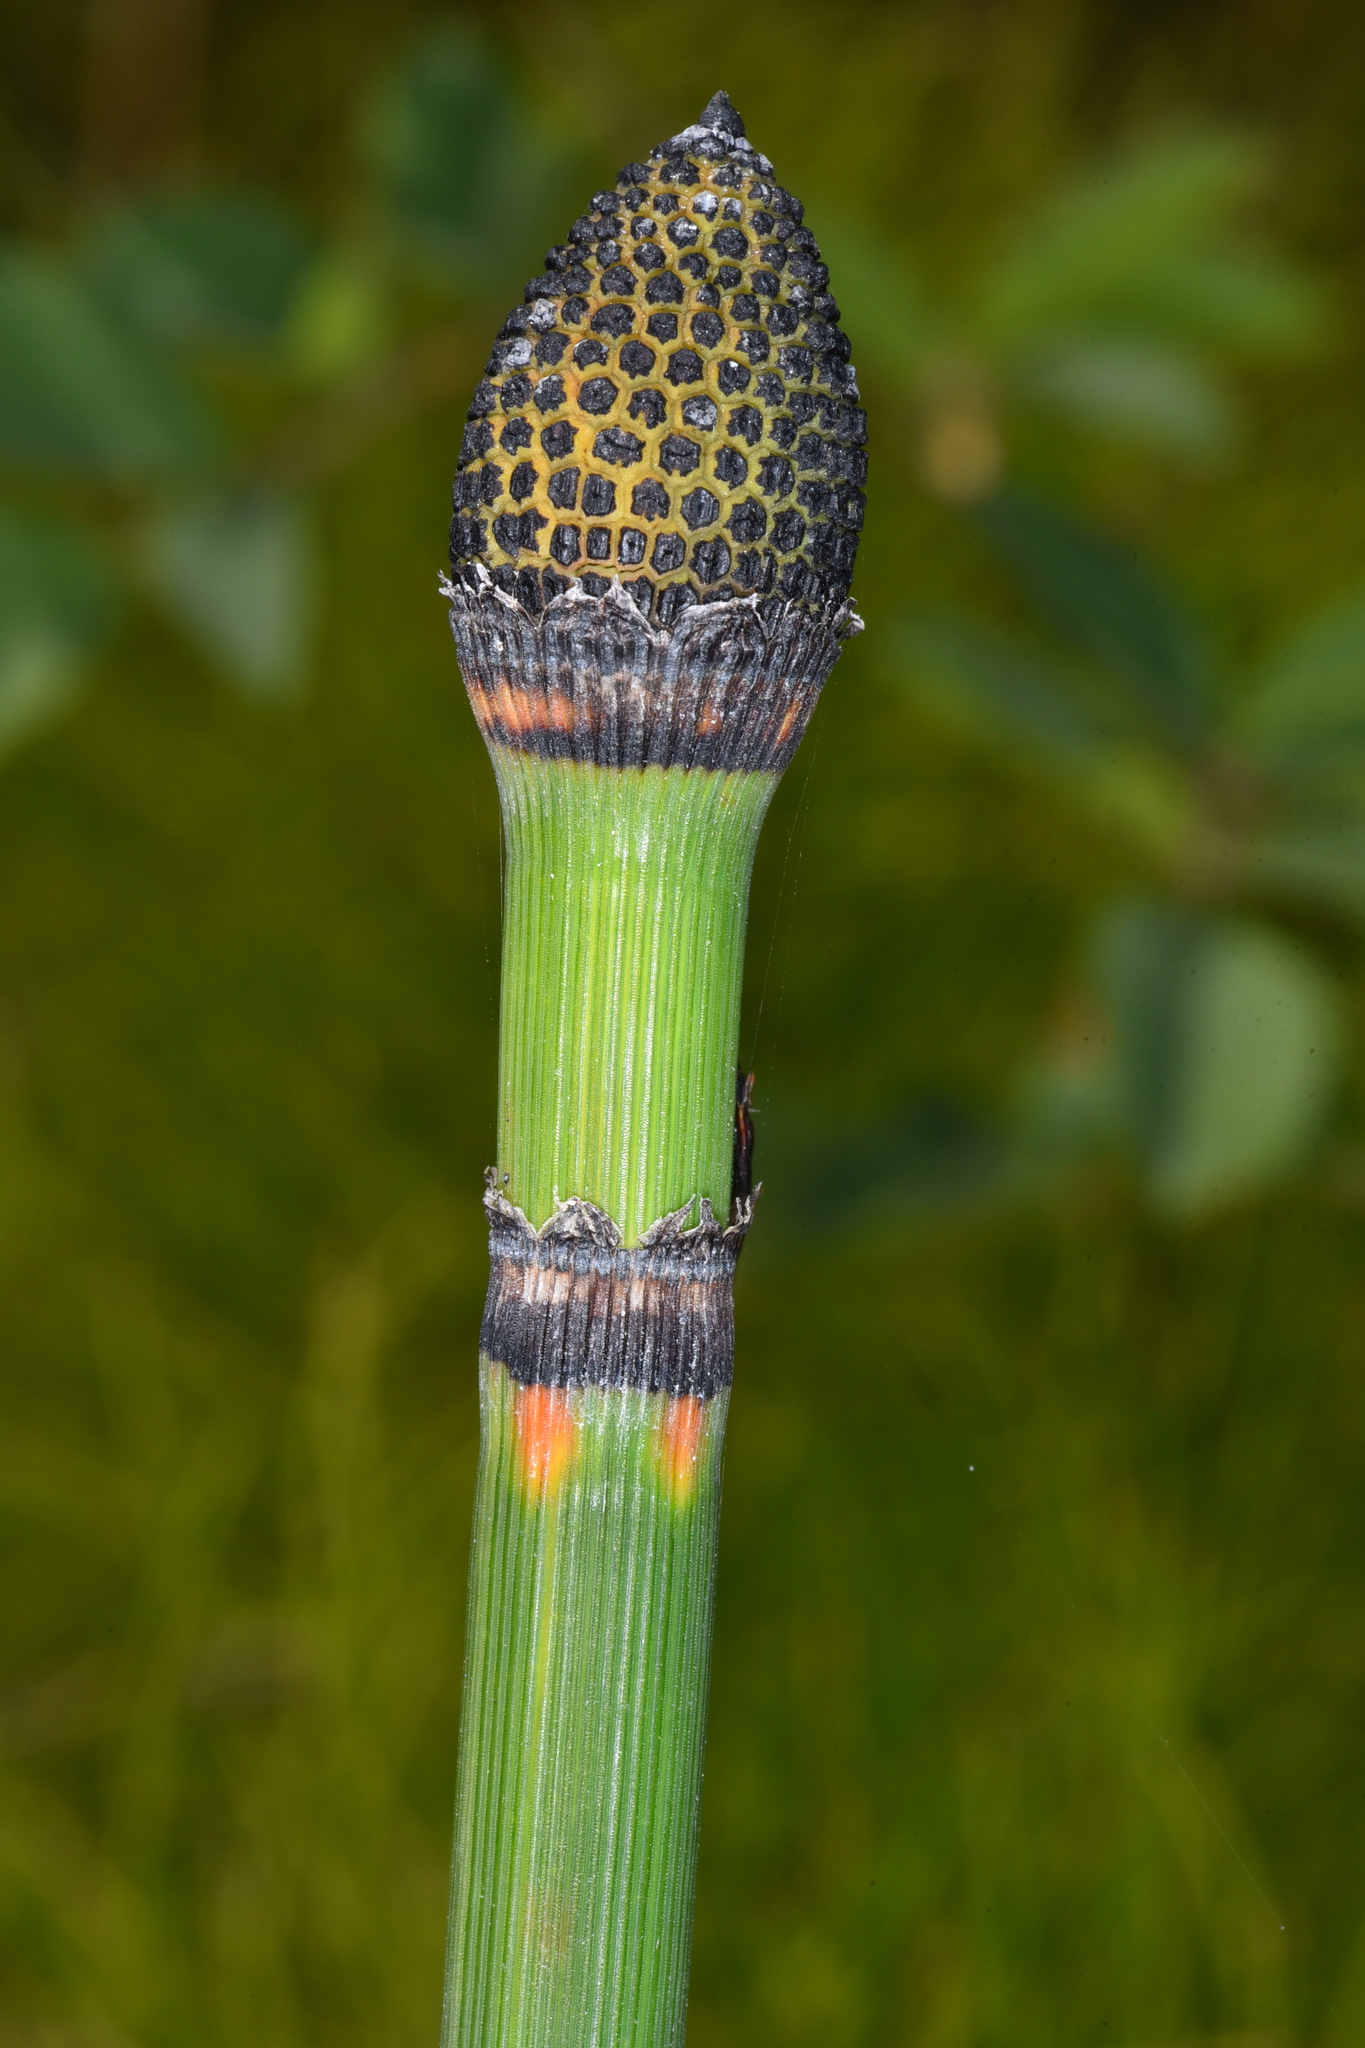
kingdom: Plantae
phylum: Tracheophyta
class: Polypodiopsida
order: Equisetales
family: Equisetaceae
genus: Equisetum
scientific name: Equisetum praealtum
